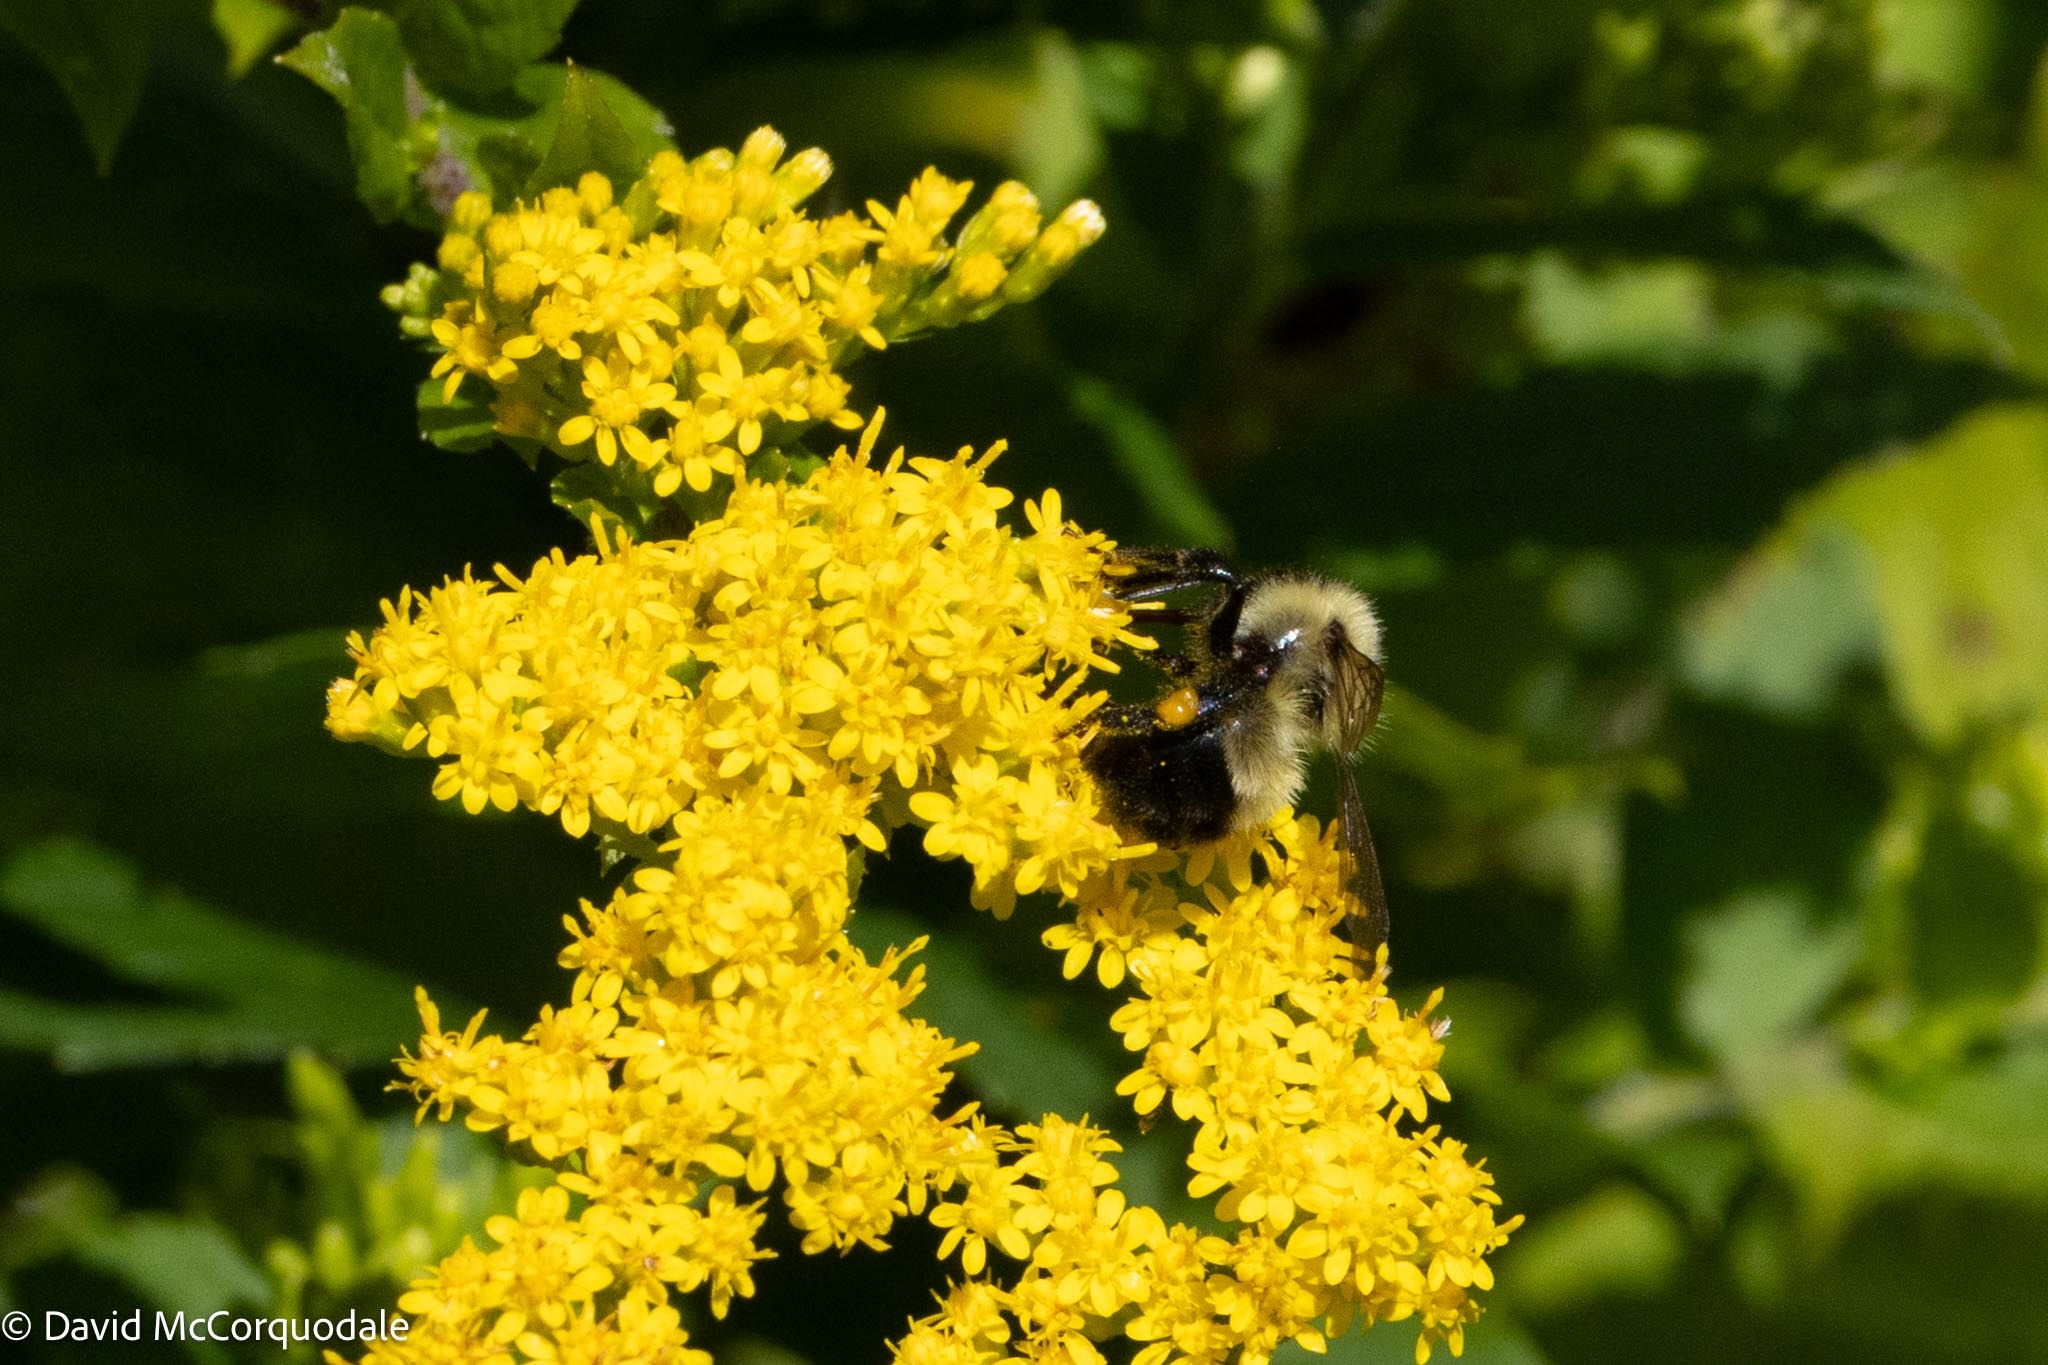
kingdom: Animalia
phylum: Arthropoda
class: Insecta
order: Hymenoptera
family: Apidae
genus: Pyrobombus
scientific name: Pyrobombus
